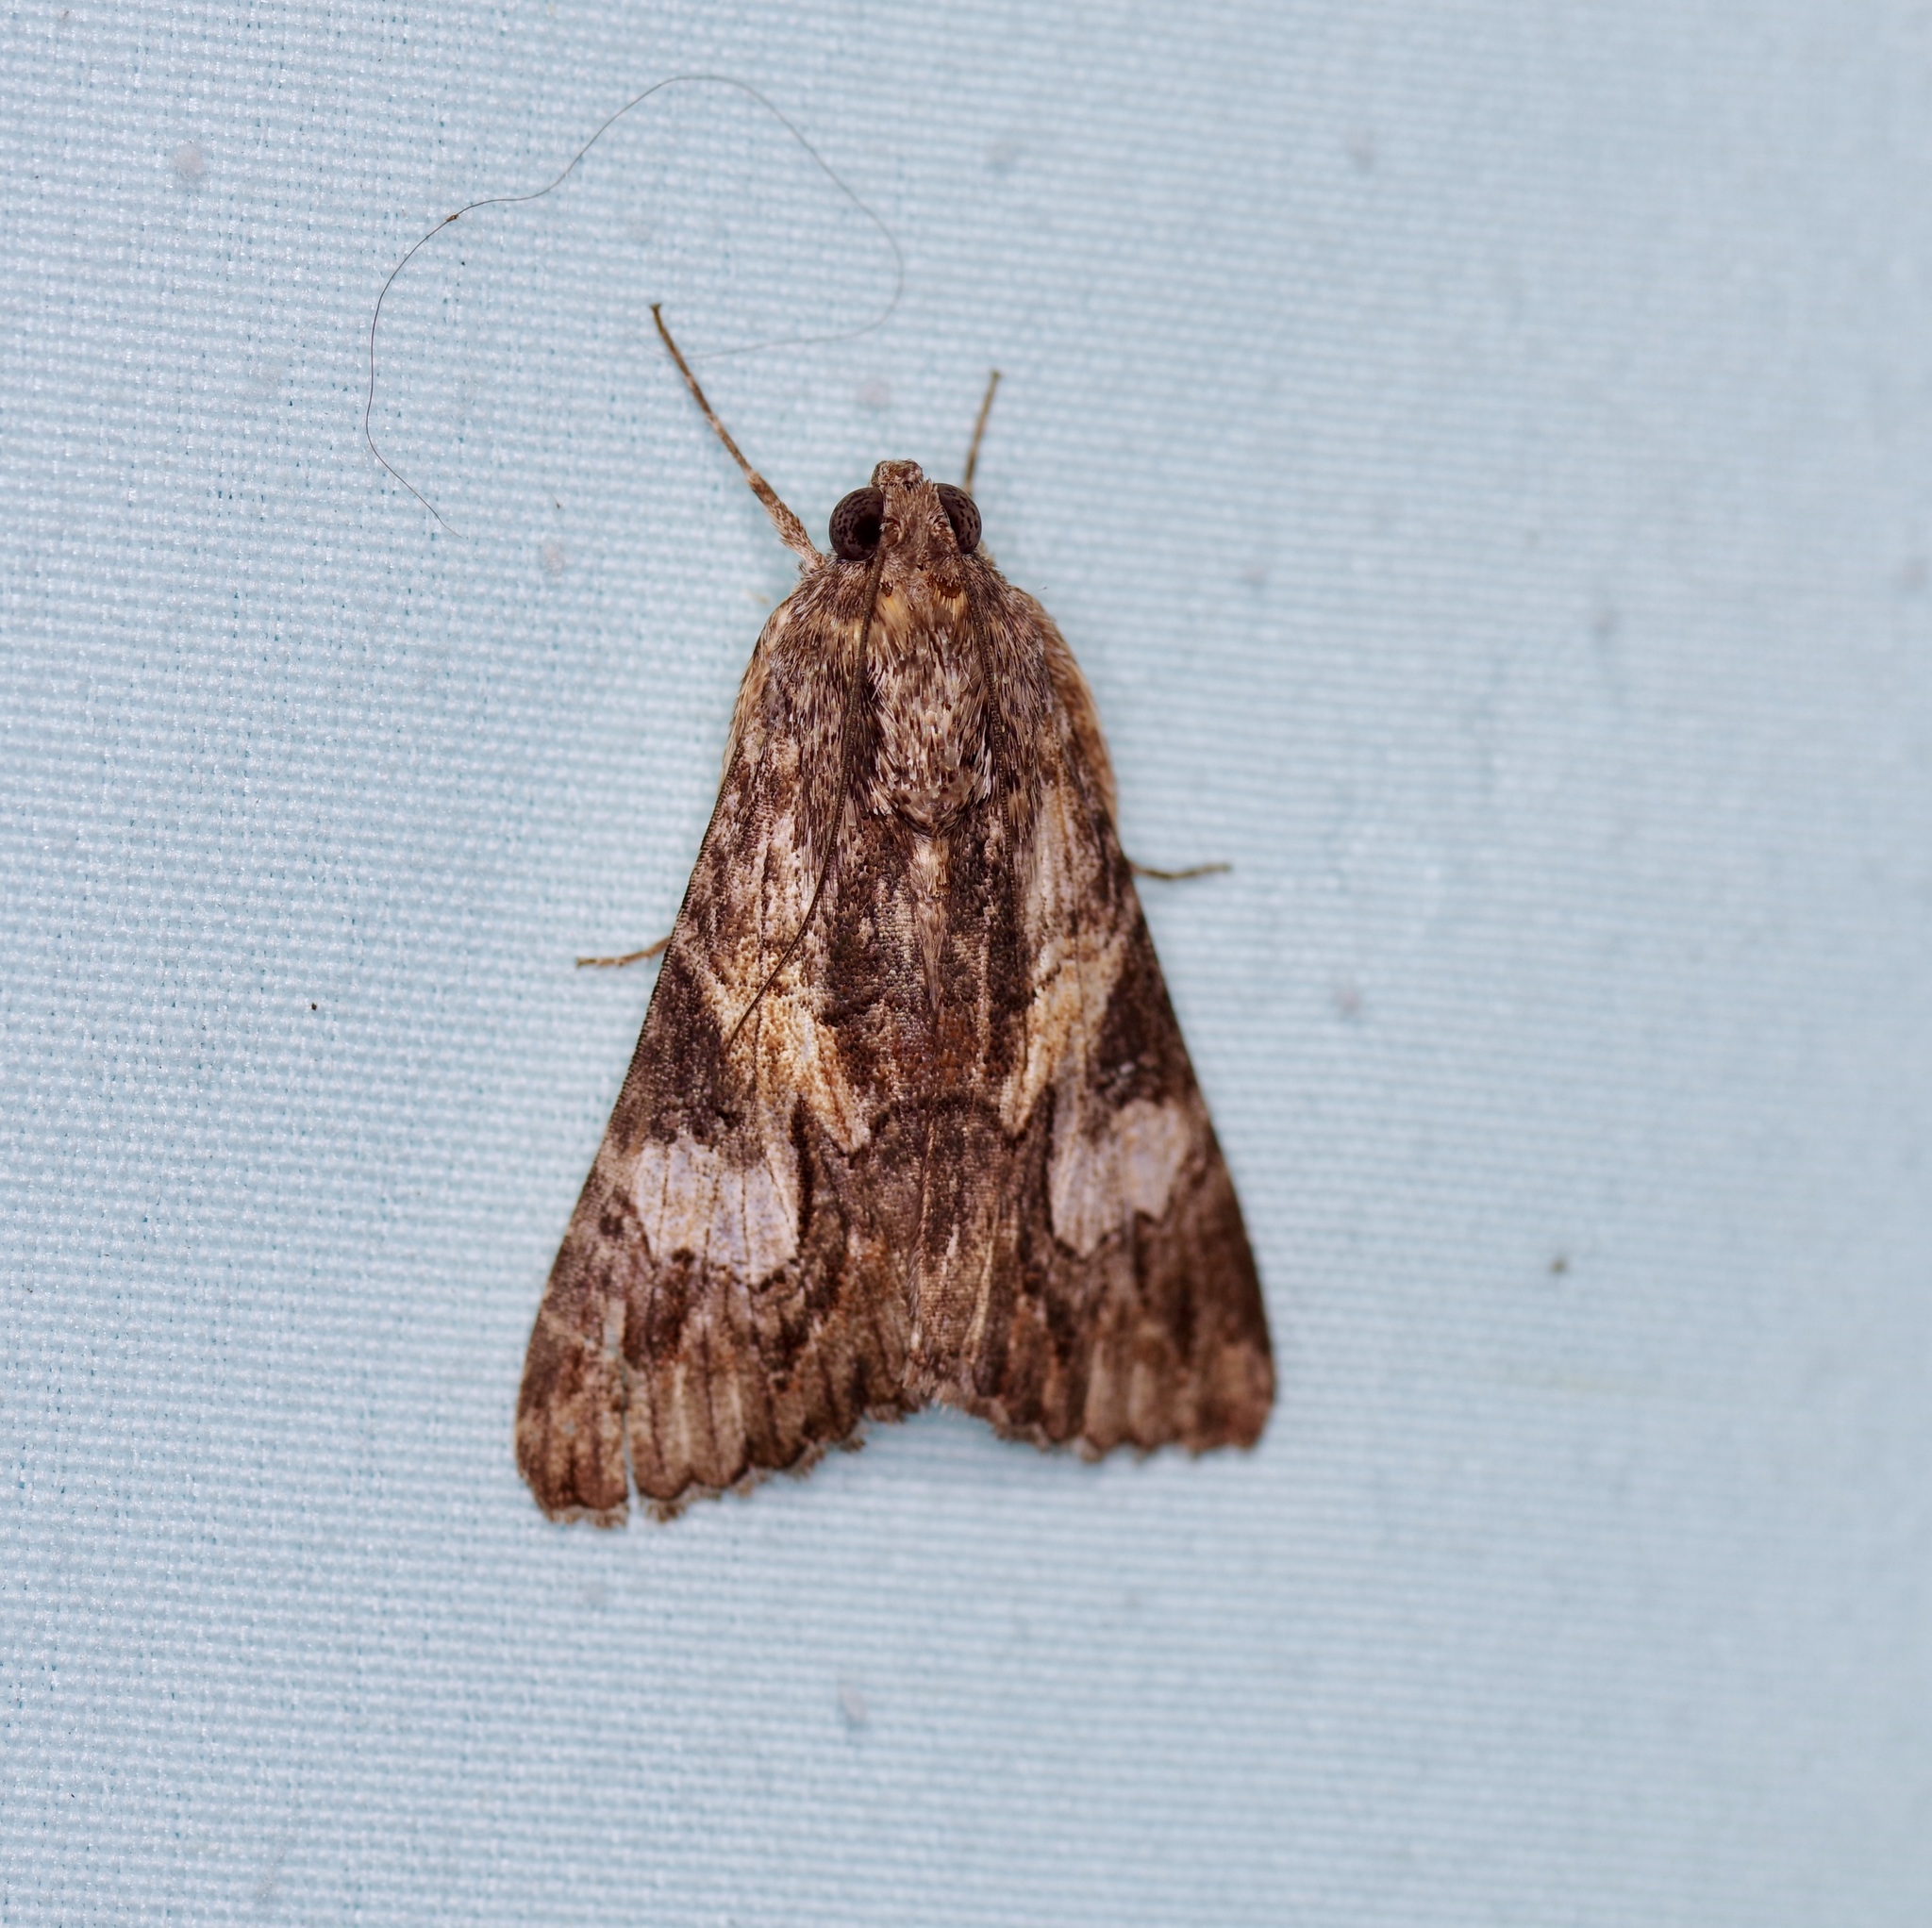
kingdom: Animalia
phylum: Arthropoda
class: Insecta
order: Lepidoptera
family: Erebidae
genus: Melipotis
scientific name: Melipotis jucunda
